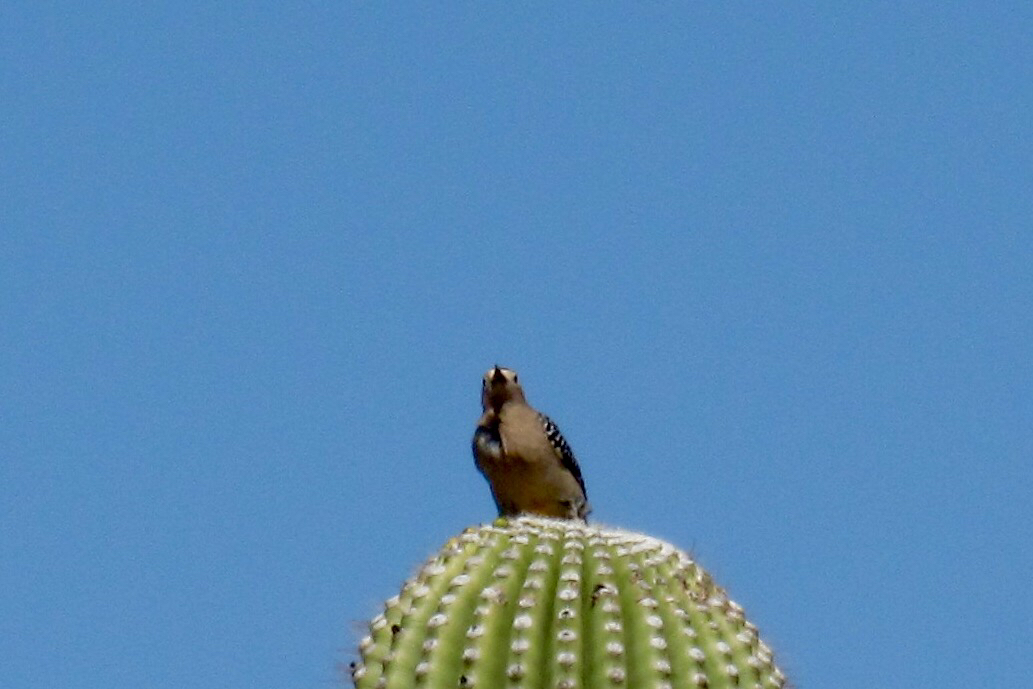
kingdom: Animalia
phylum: Chordata
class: Aves
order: Piciformes
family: Picidae
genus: Melanerpes
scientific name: Melanerpes uropygialis
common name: Gila woodpecker
